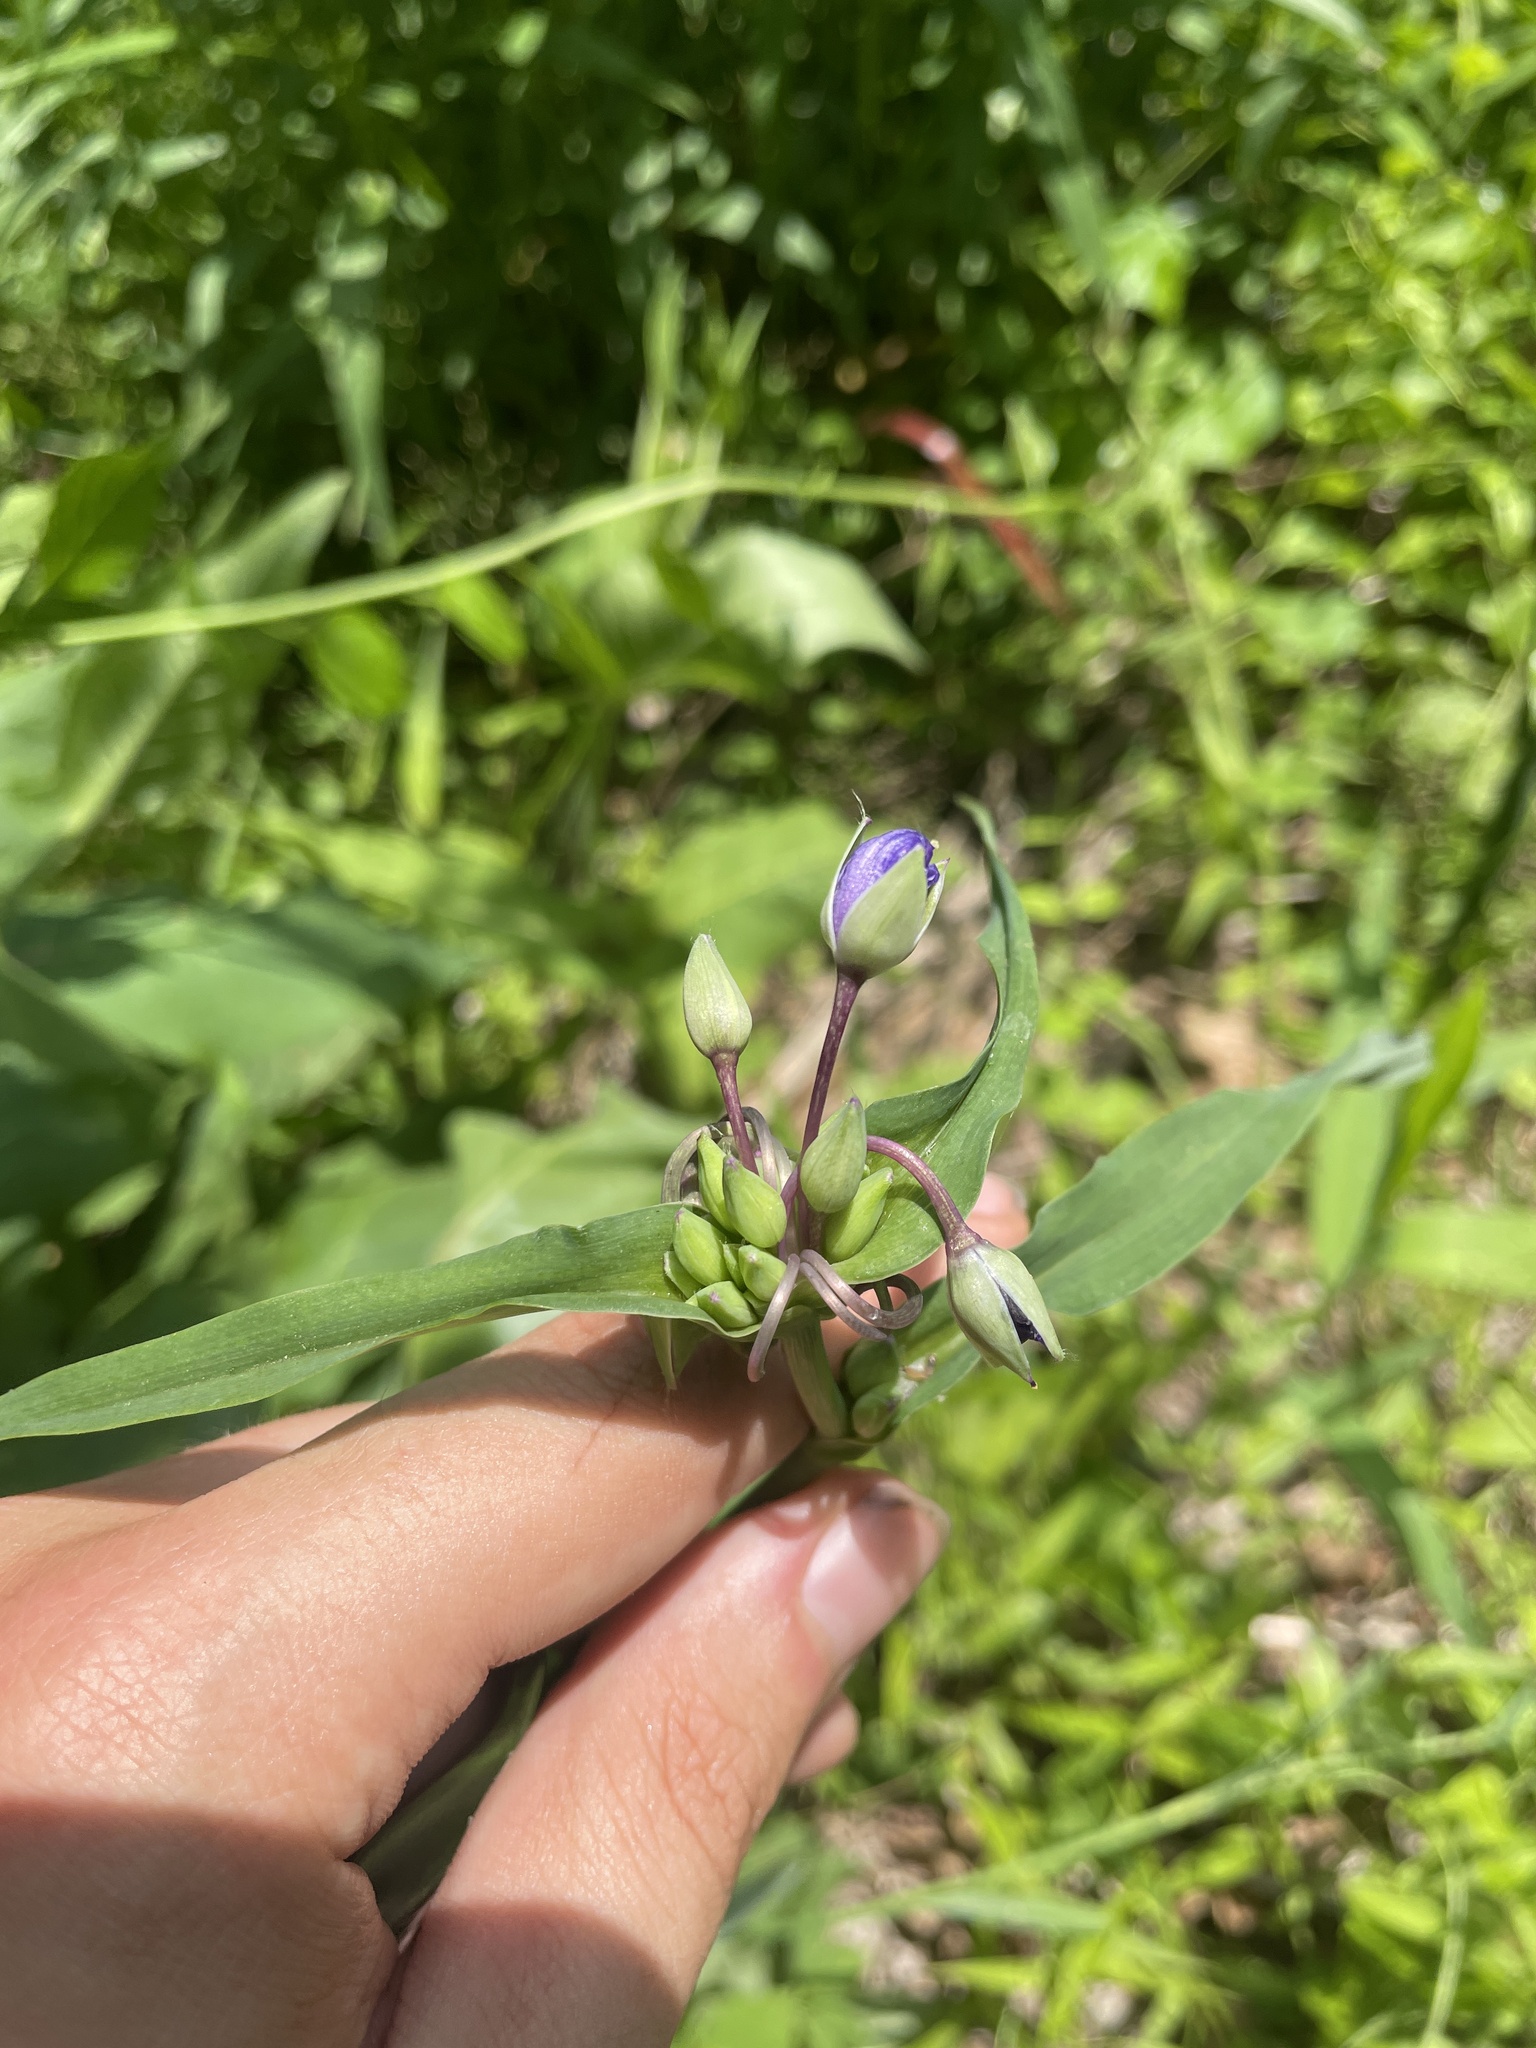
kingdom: Plantae
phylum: Tracheophyta
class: Liliopsida
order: Commelinales
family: Commelinaceae
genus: Tradescantia
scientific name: Tradescantia ohiensis
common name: Ohio spiderwort
